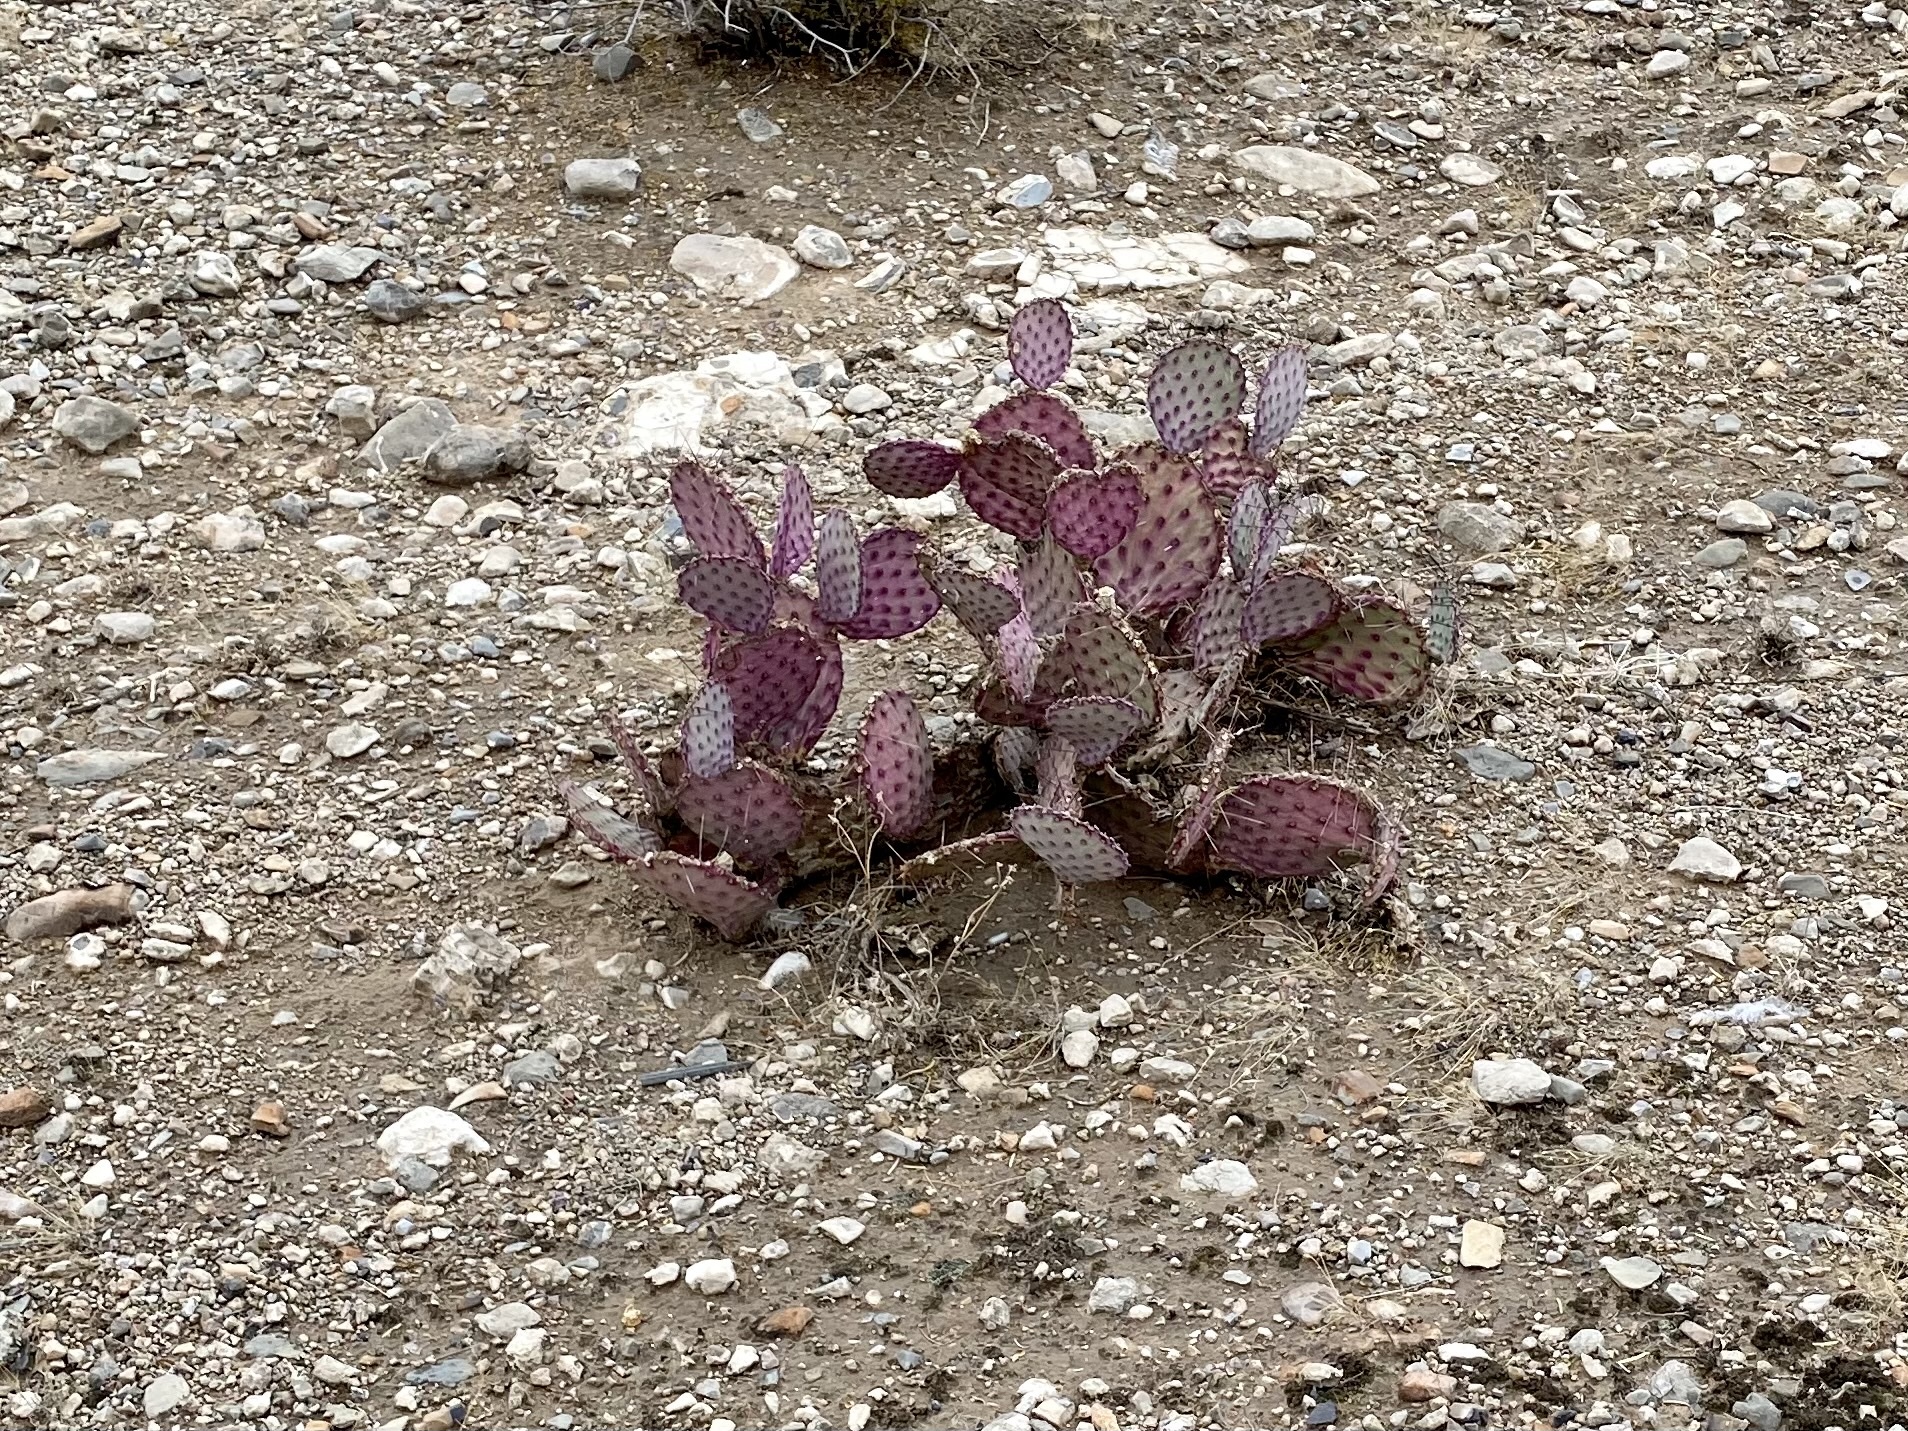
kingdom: Plantae
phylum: Tracheophyta
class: Magnoliopsida
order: Caryophyllales
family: Cactaceae
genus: Opuntia
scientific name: Opuntia macrocentra
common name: Purple prickly-pear
